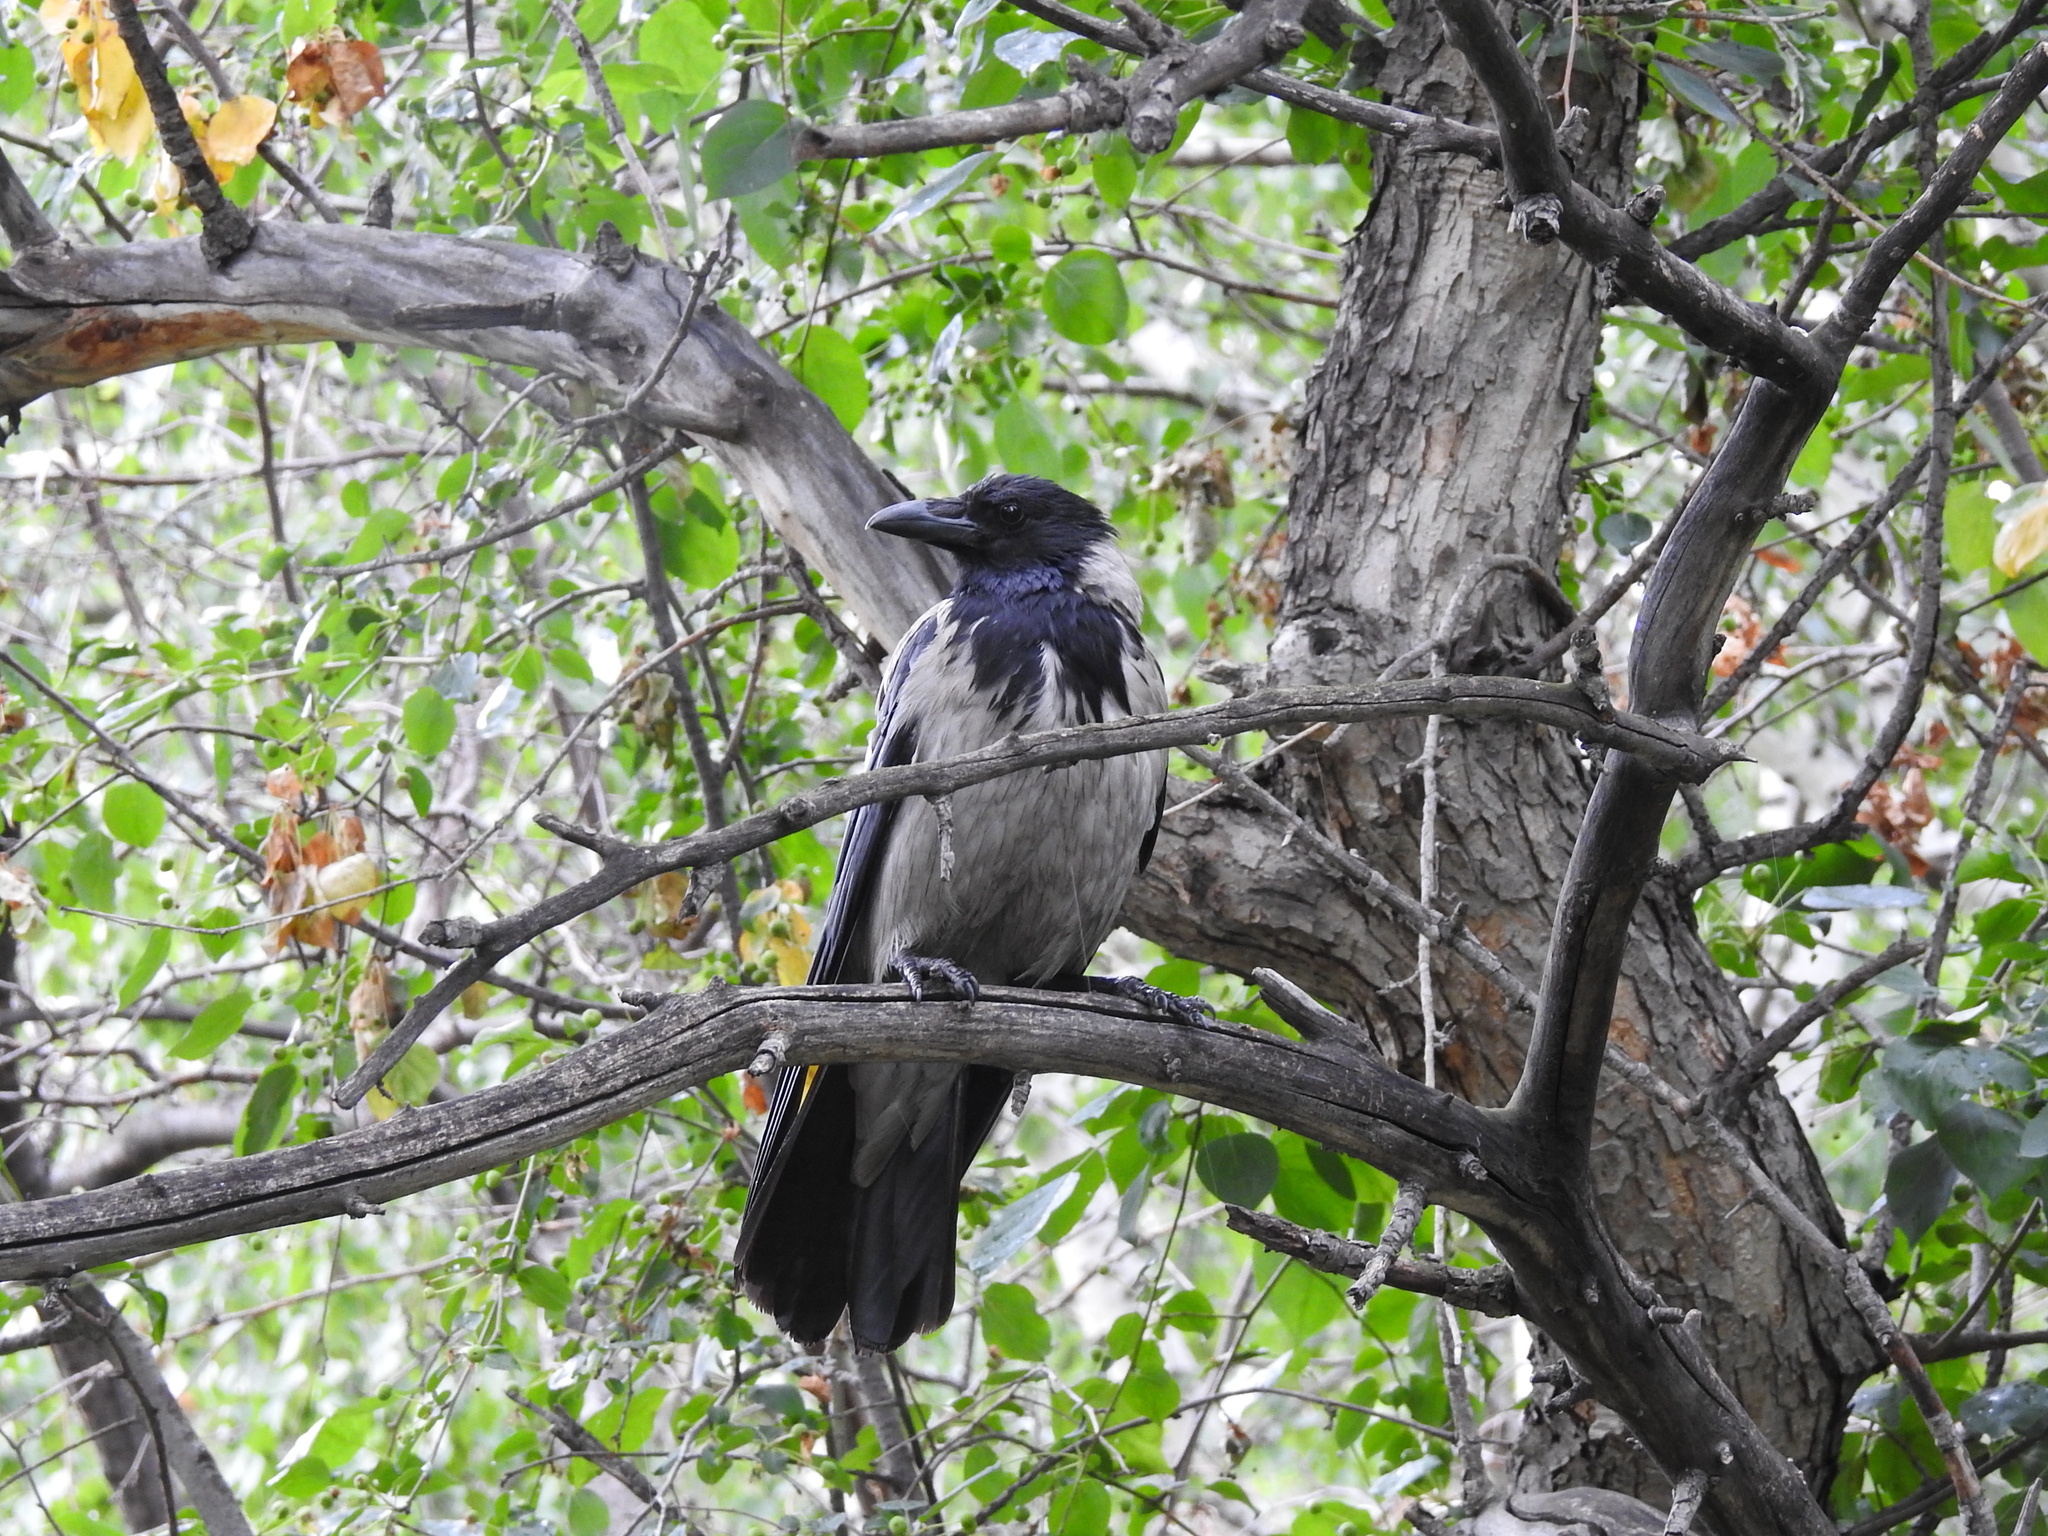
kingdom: Animalia
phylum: Chordata
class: Aves
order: Passeriformes
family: Corvidae
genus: Corvus
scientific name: Corvus cornix
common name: Hooded crow
